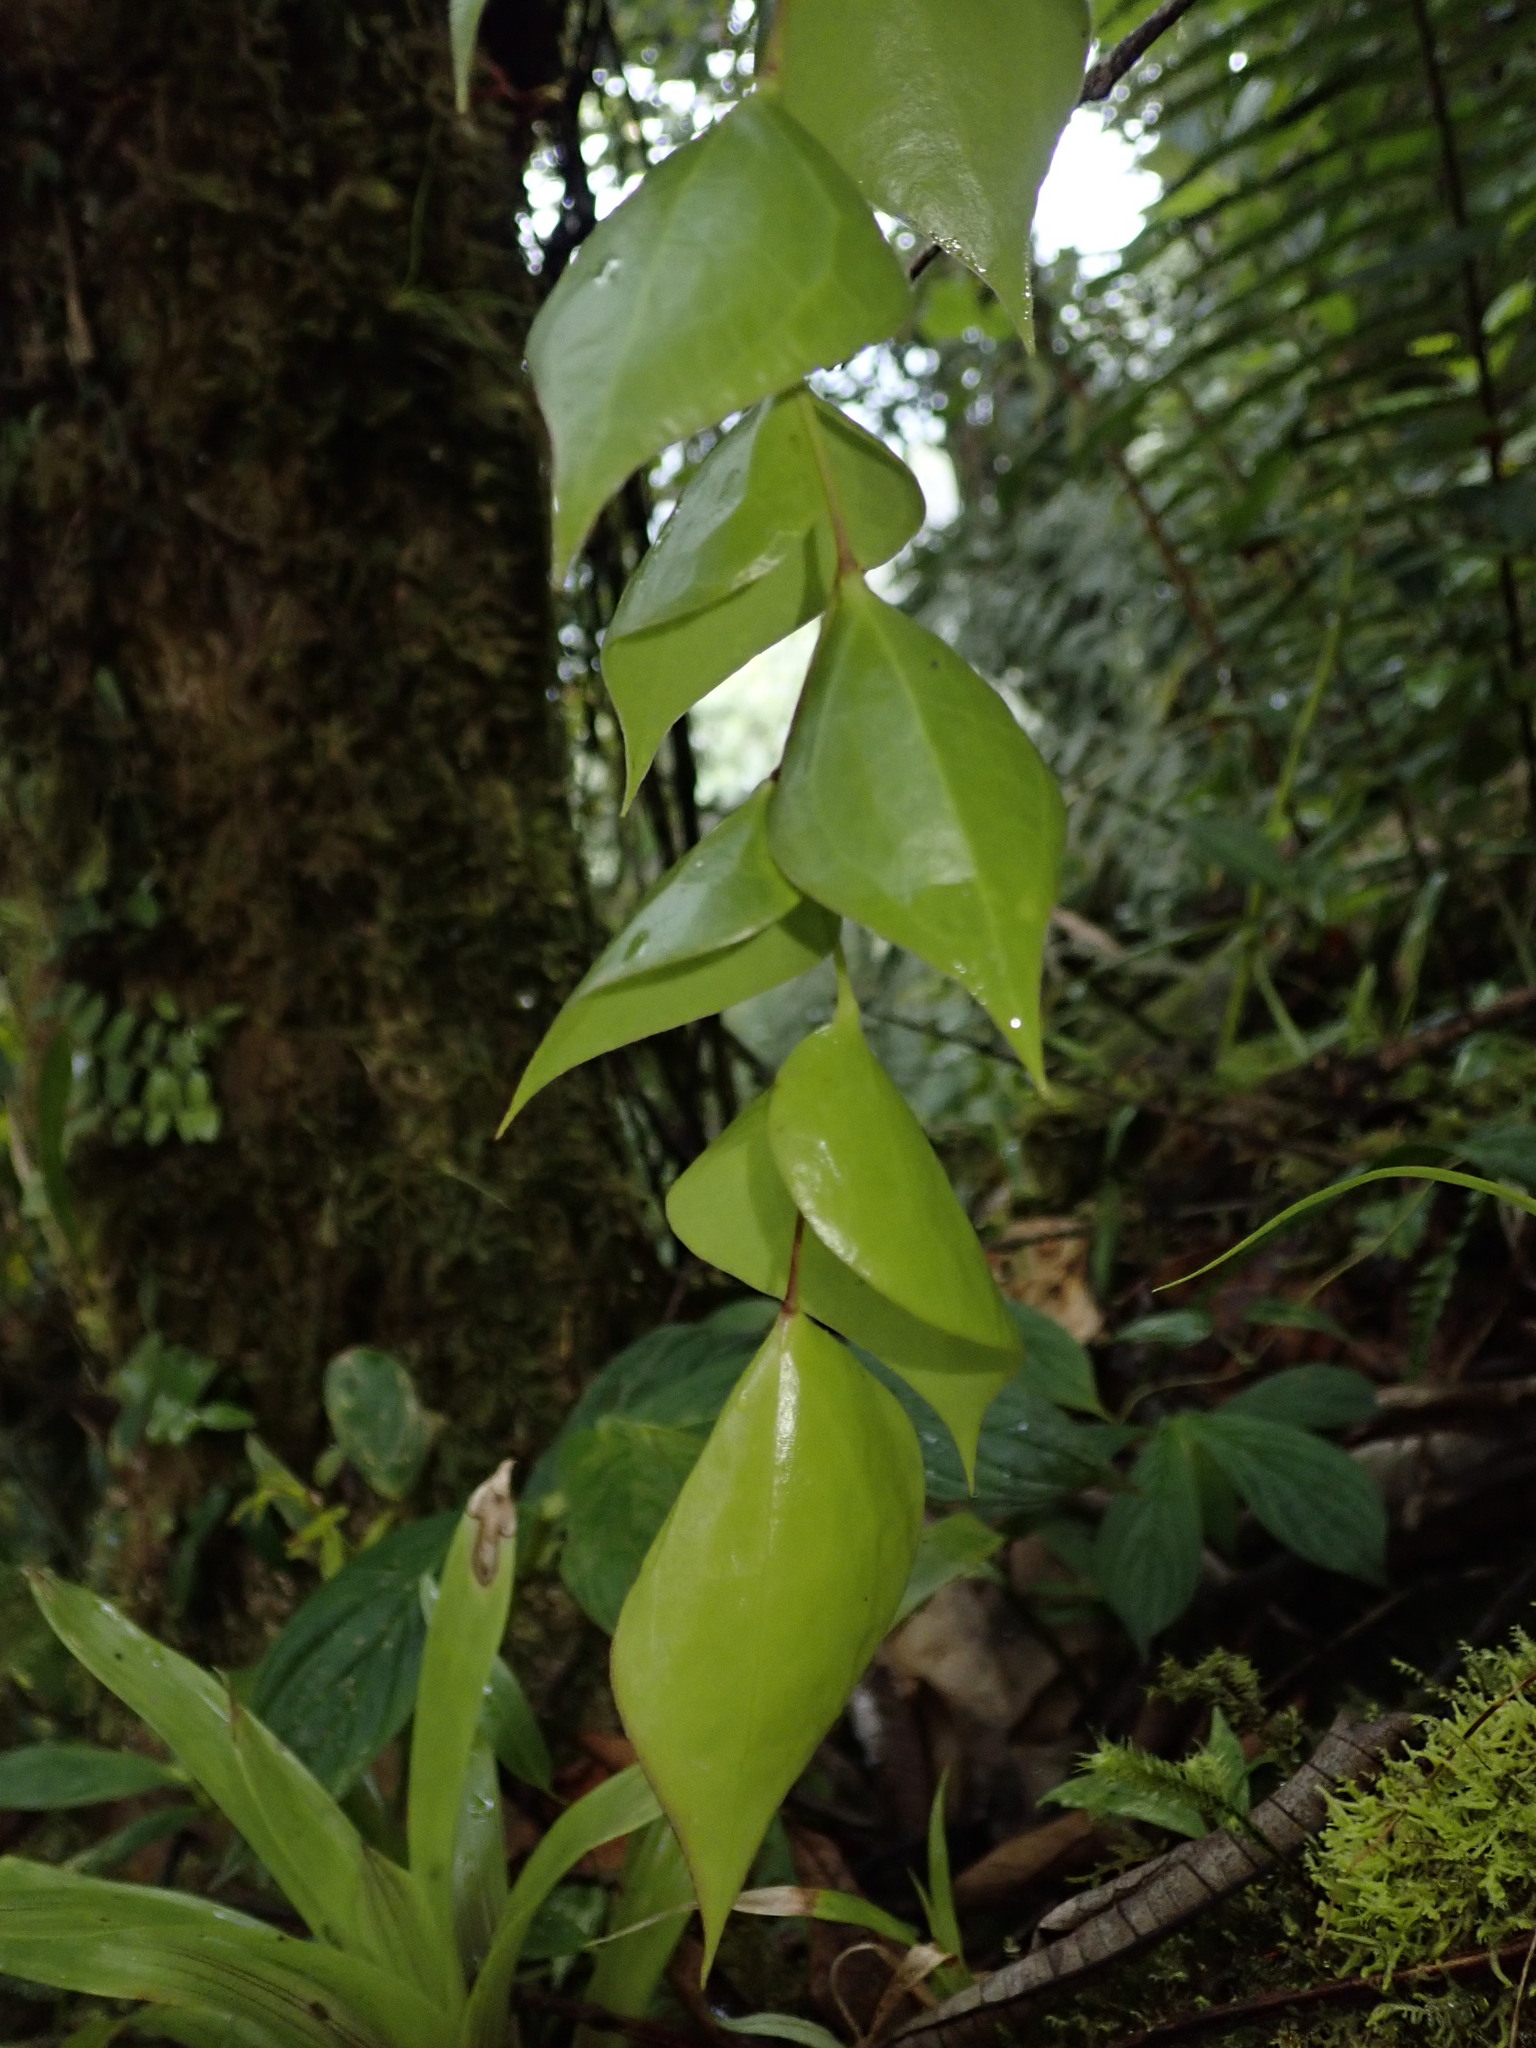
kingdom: Plantae
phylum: Tracheophyta
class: Magnoliopsida
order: Ericales
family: Ericaceae
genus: Themistoclesia
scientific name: Themistoclesia recondita
